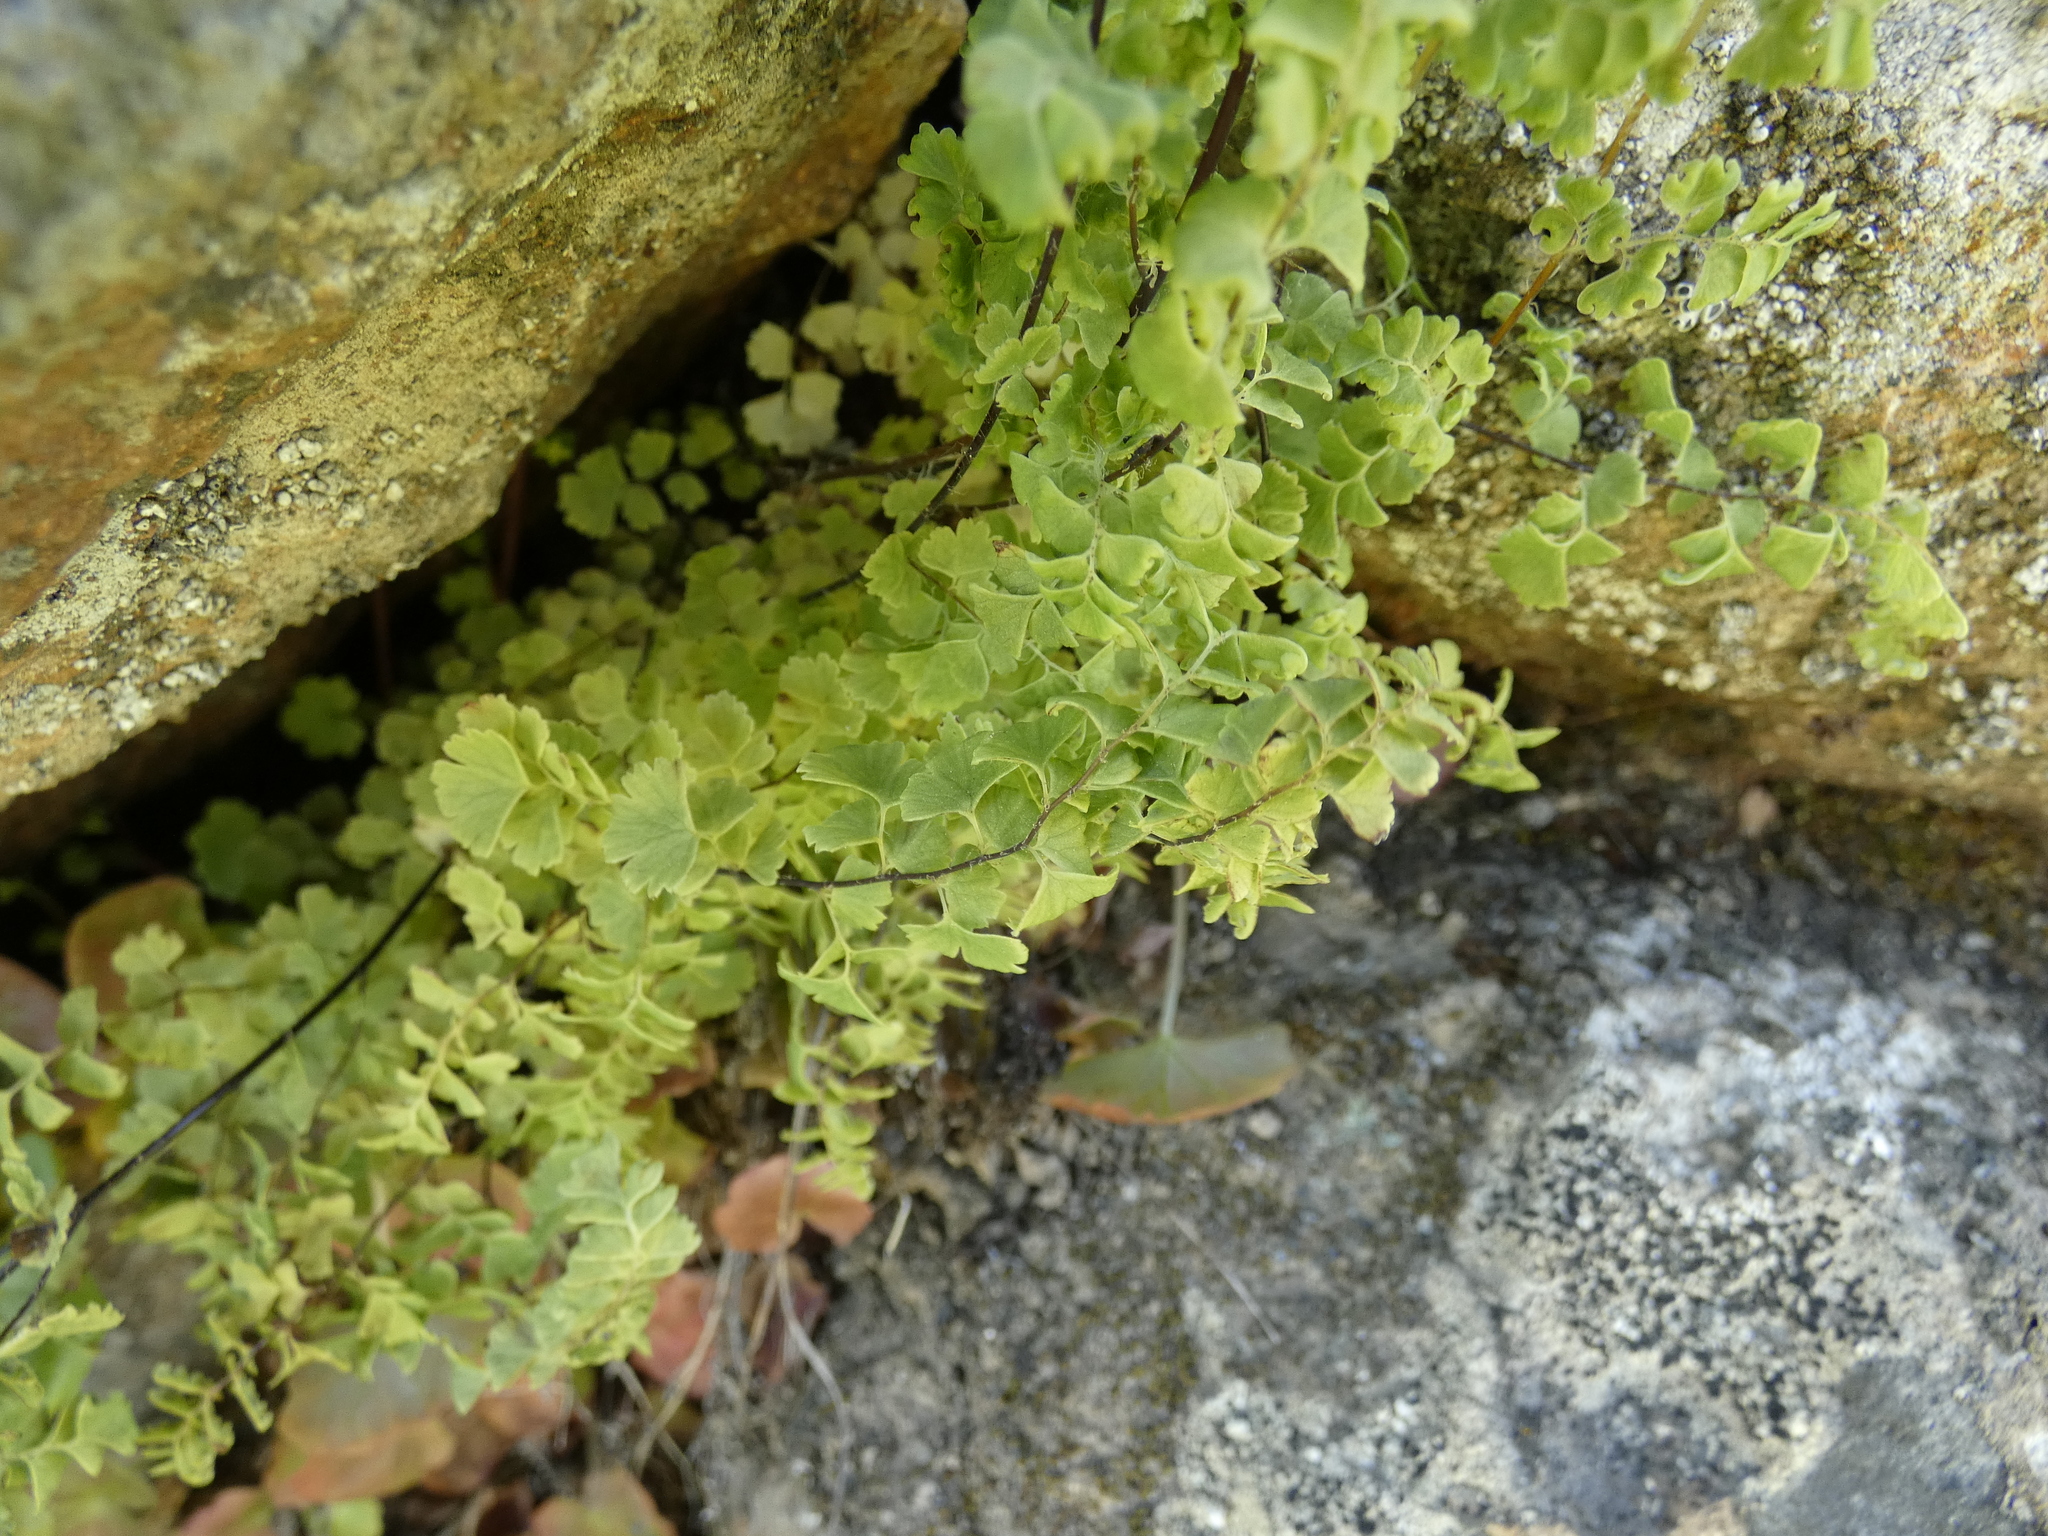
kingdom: Plantae
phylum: Tracheophyta
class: Polypodiopsida
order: Polypodiales
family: Pteridaceae
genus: Adiantum
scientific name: Adiantum excisum
